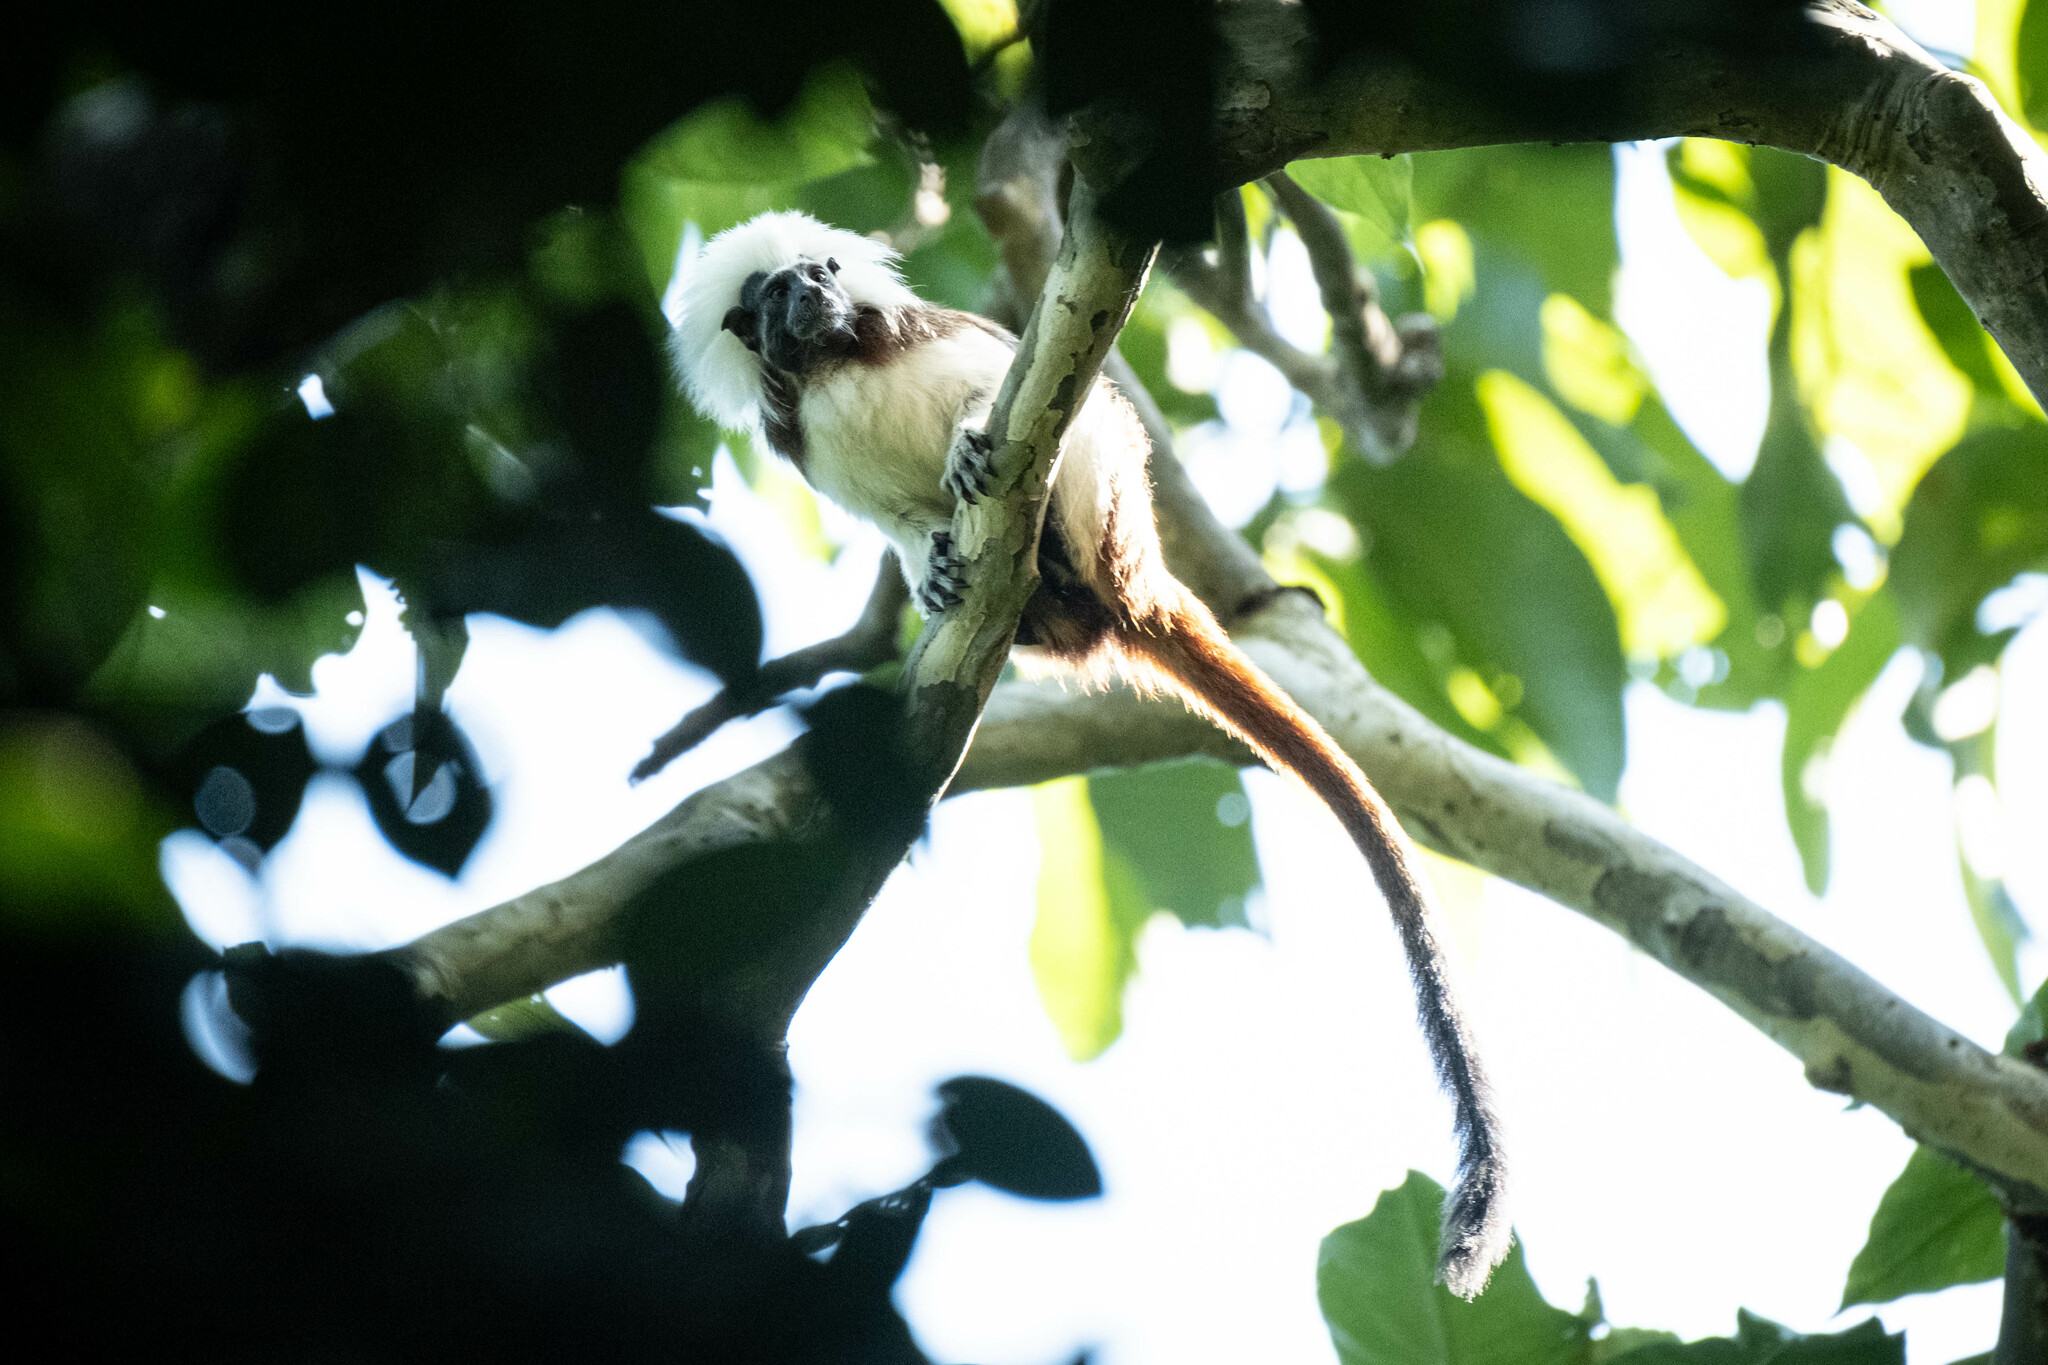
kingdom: Animalia
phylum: Chordata
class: Mammalia
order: Primates
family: Callitrichidae
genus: Saguinus
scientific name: Saguinus oedipus
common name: Cottontop tamarin
